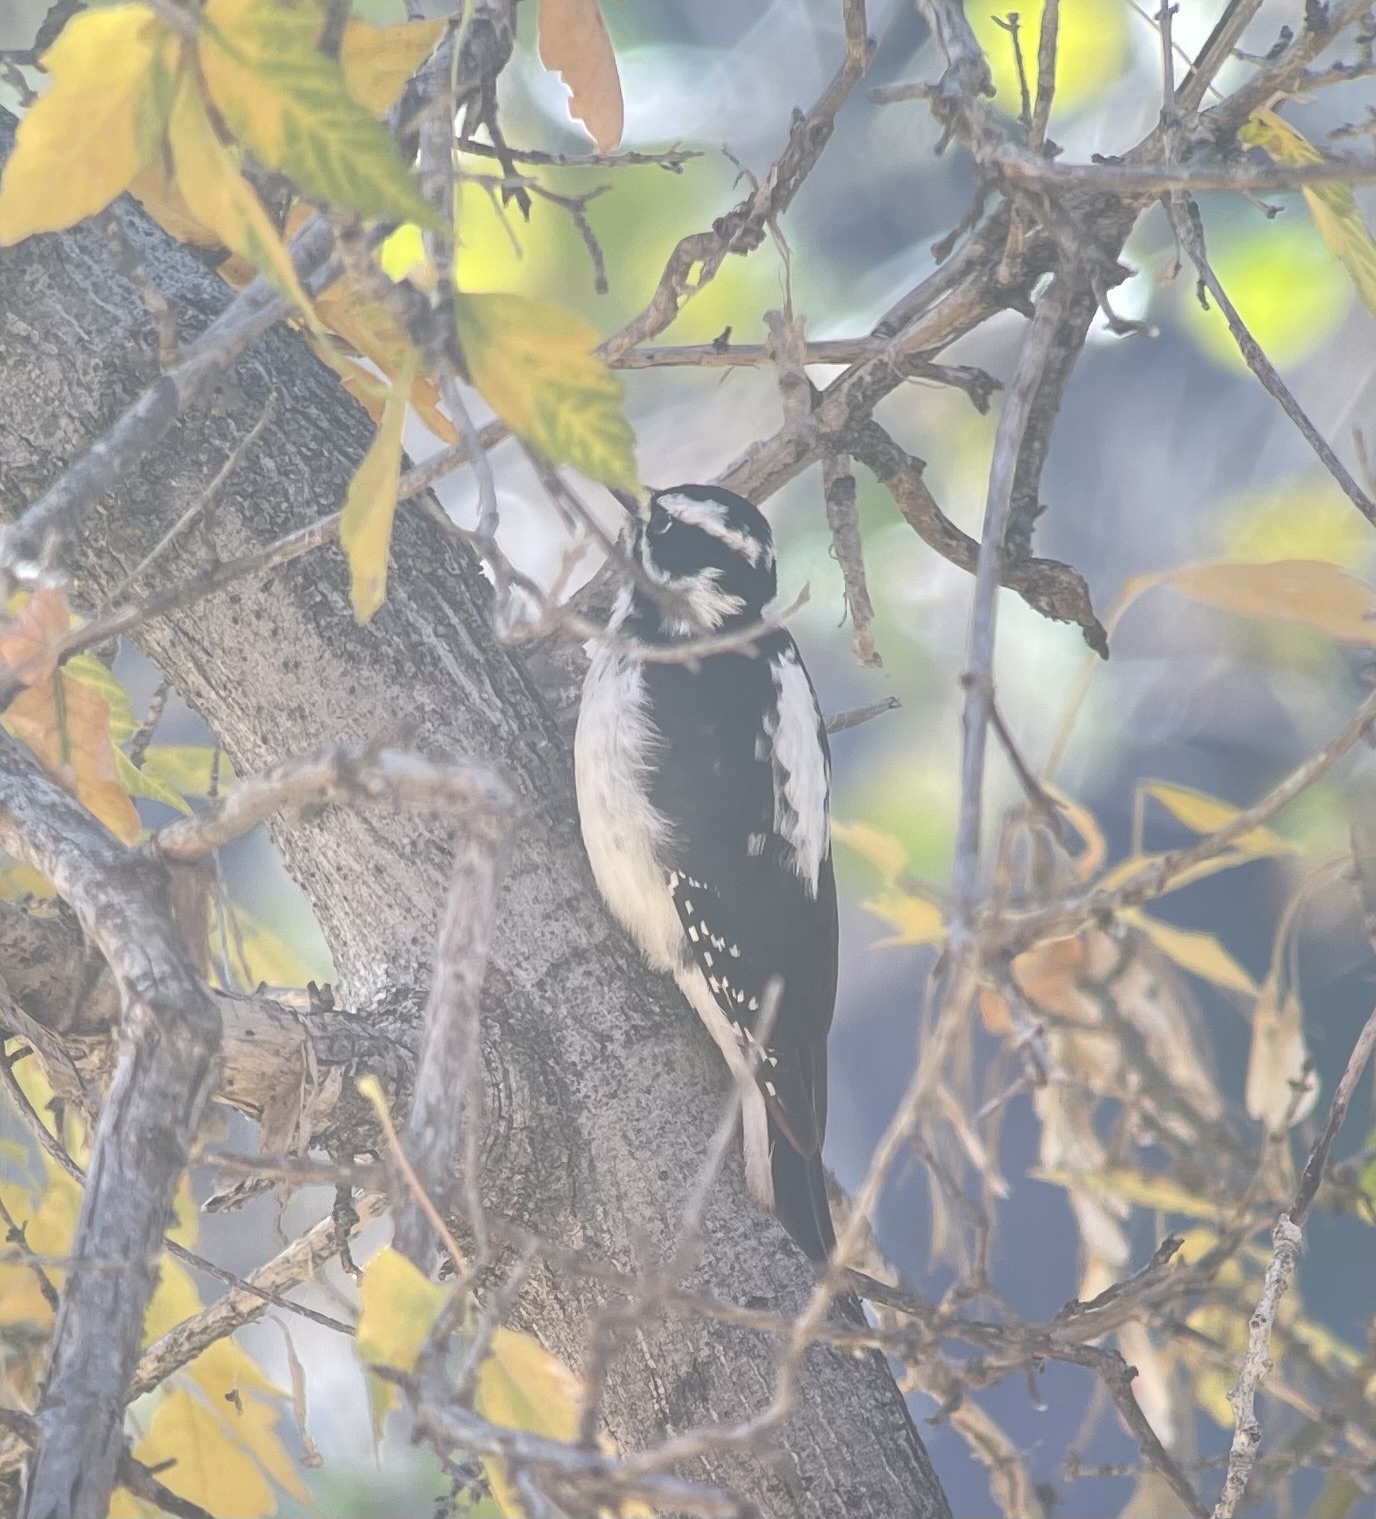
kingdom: Animalia
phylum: Chordata
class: Aves
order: Piciformes
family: Picidae
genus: Leuconotopicus
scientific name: Leuconotopicus villosus
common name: Hairy woodpecker
